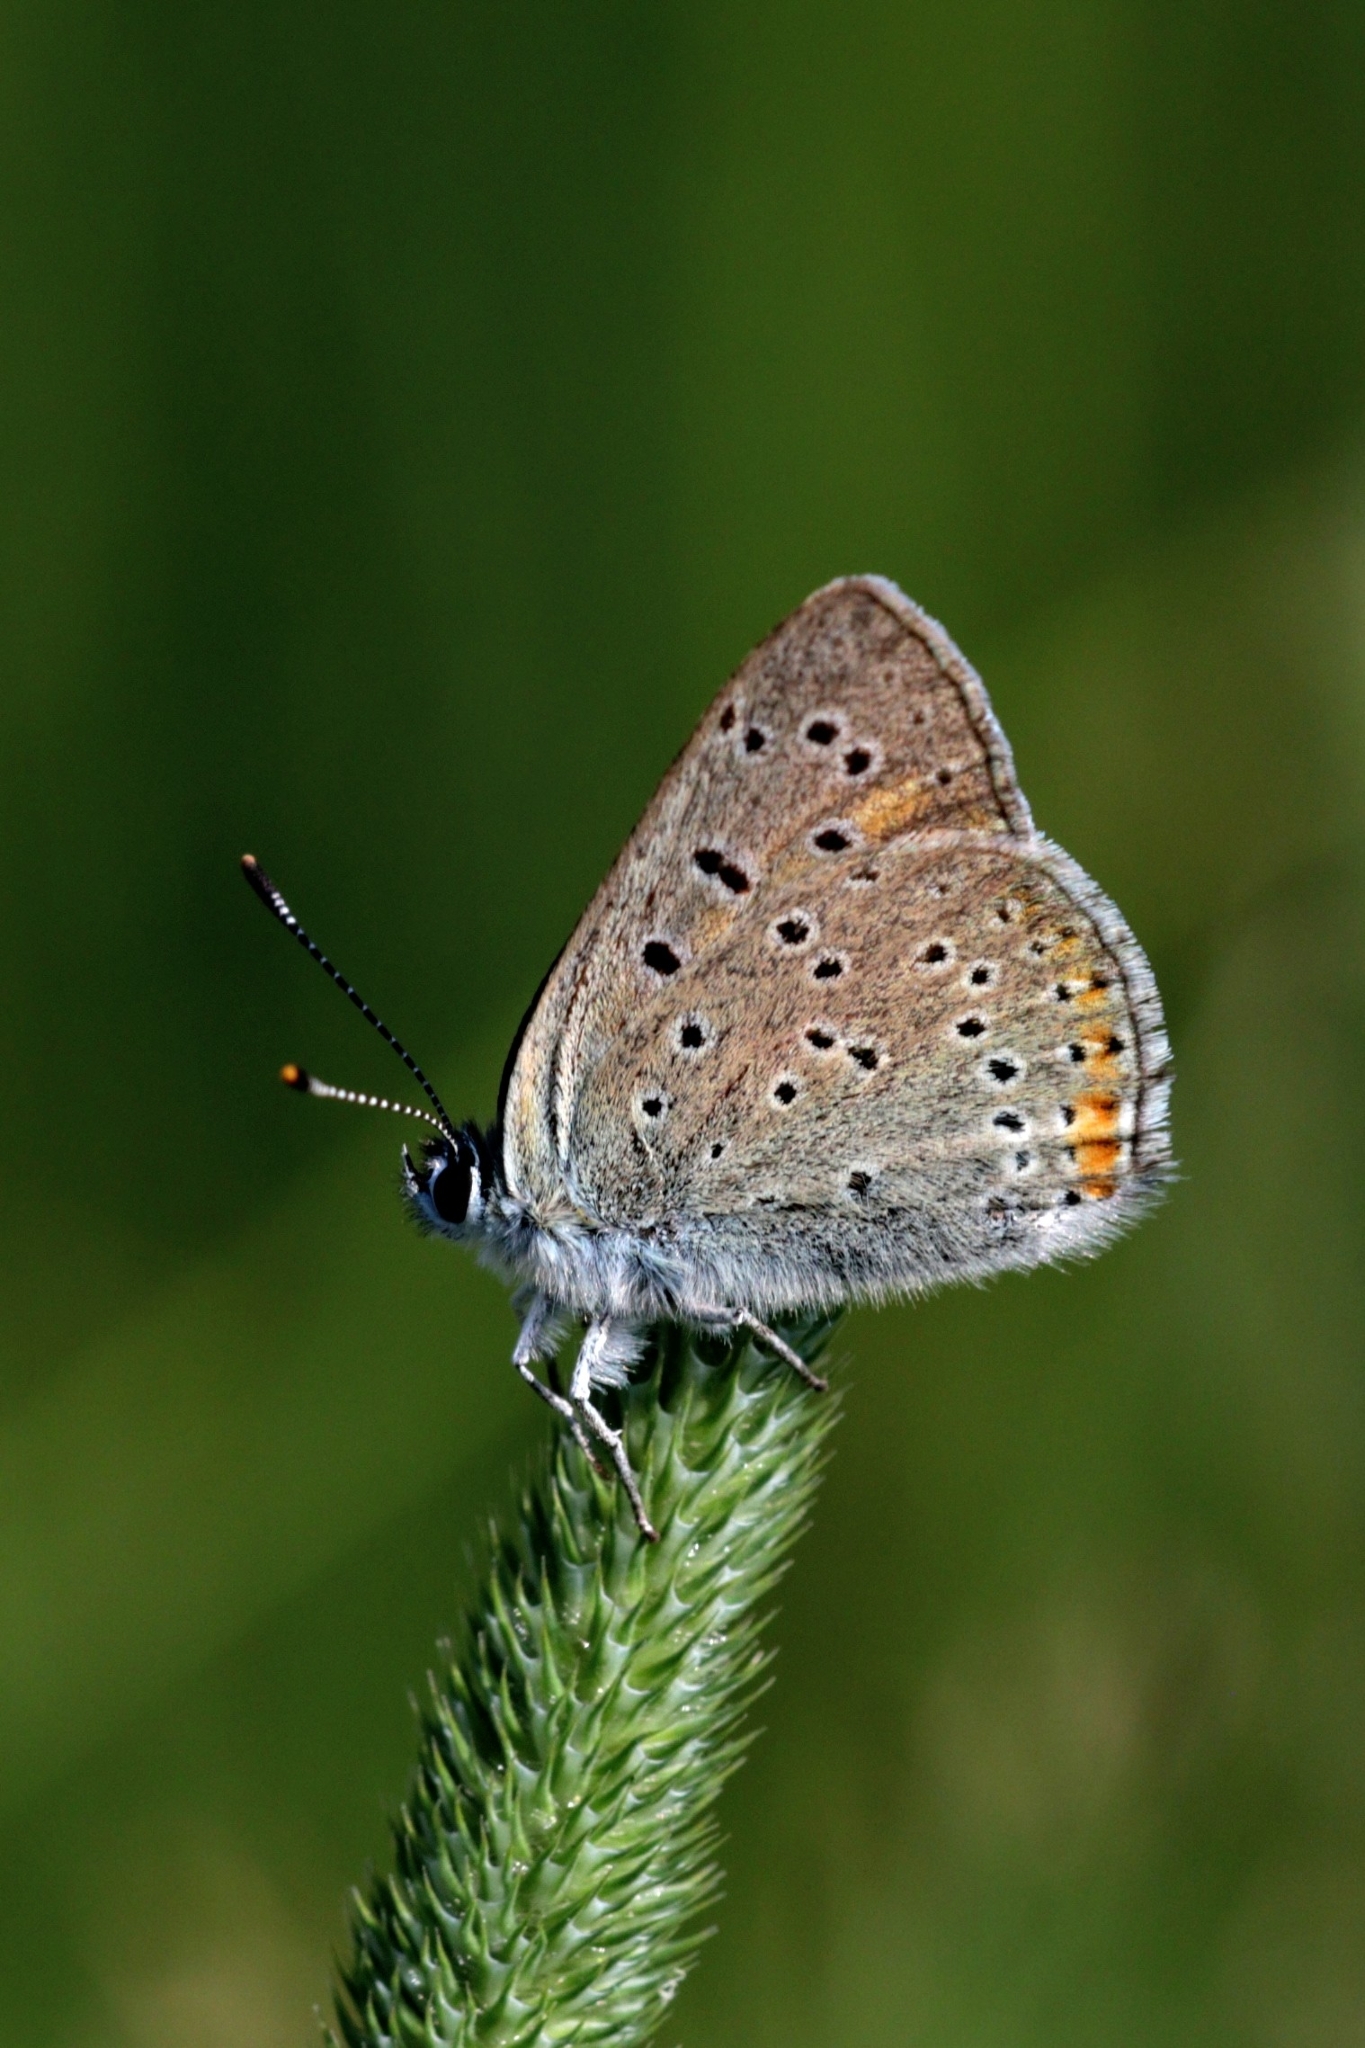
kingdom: Animalia
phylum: Arthropoda
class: Insecta
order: Lepidoptera
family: Lycaenidae
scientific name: Lycaenidae
